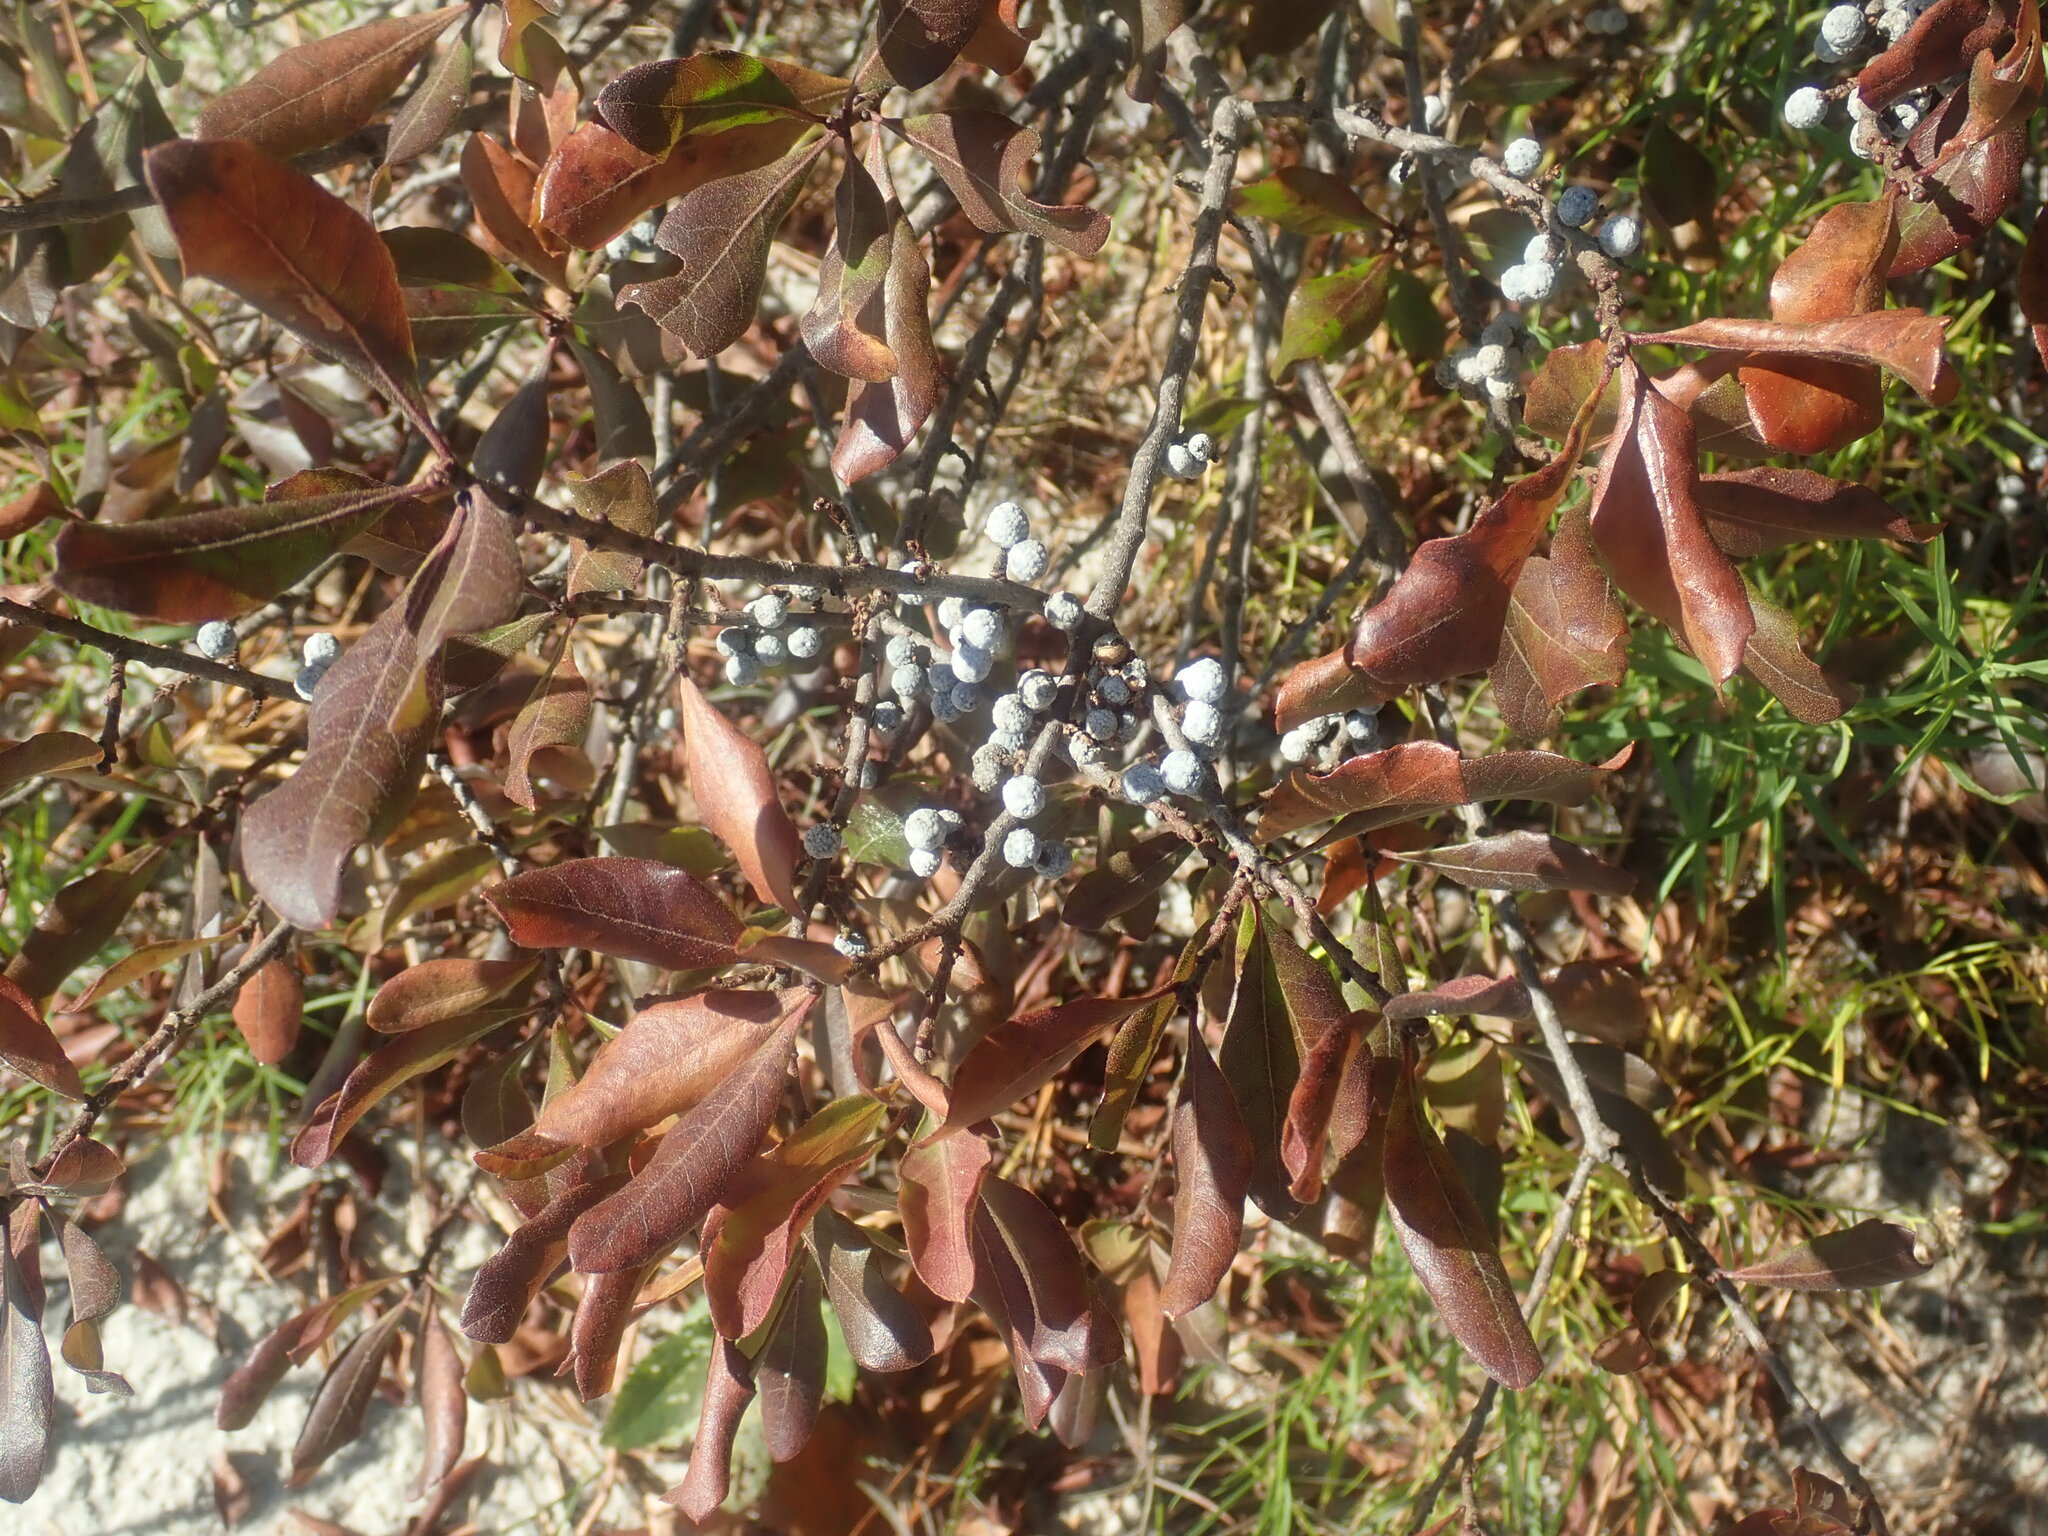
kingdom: Plantae
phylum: Tracheophyta
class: Magnoliopsida
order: Fagales
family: Myricaceae
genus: Morella
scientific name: Morella pensylvanica
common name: Northern bayberry
